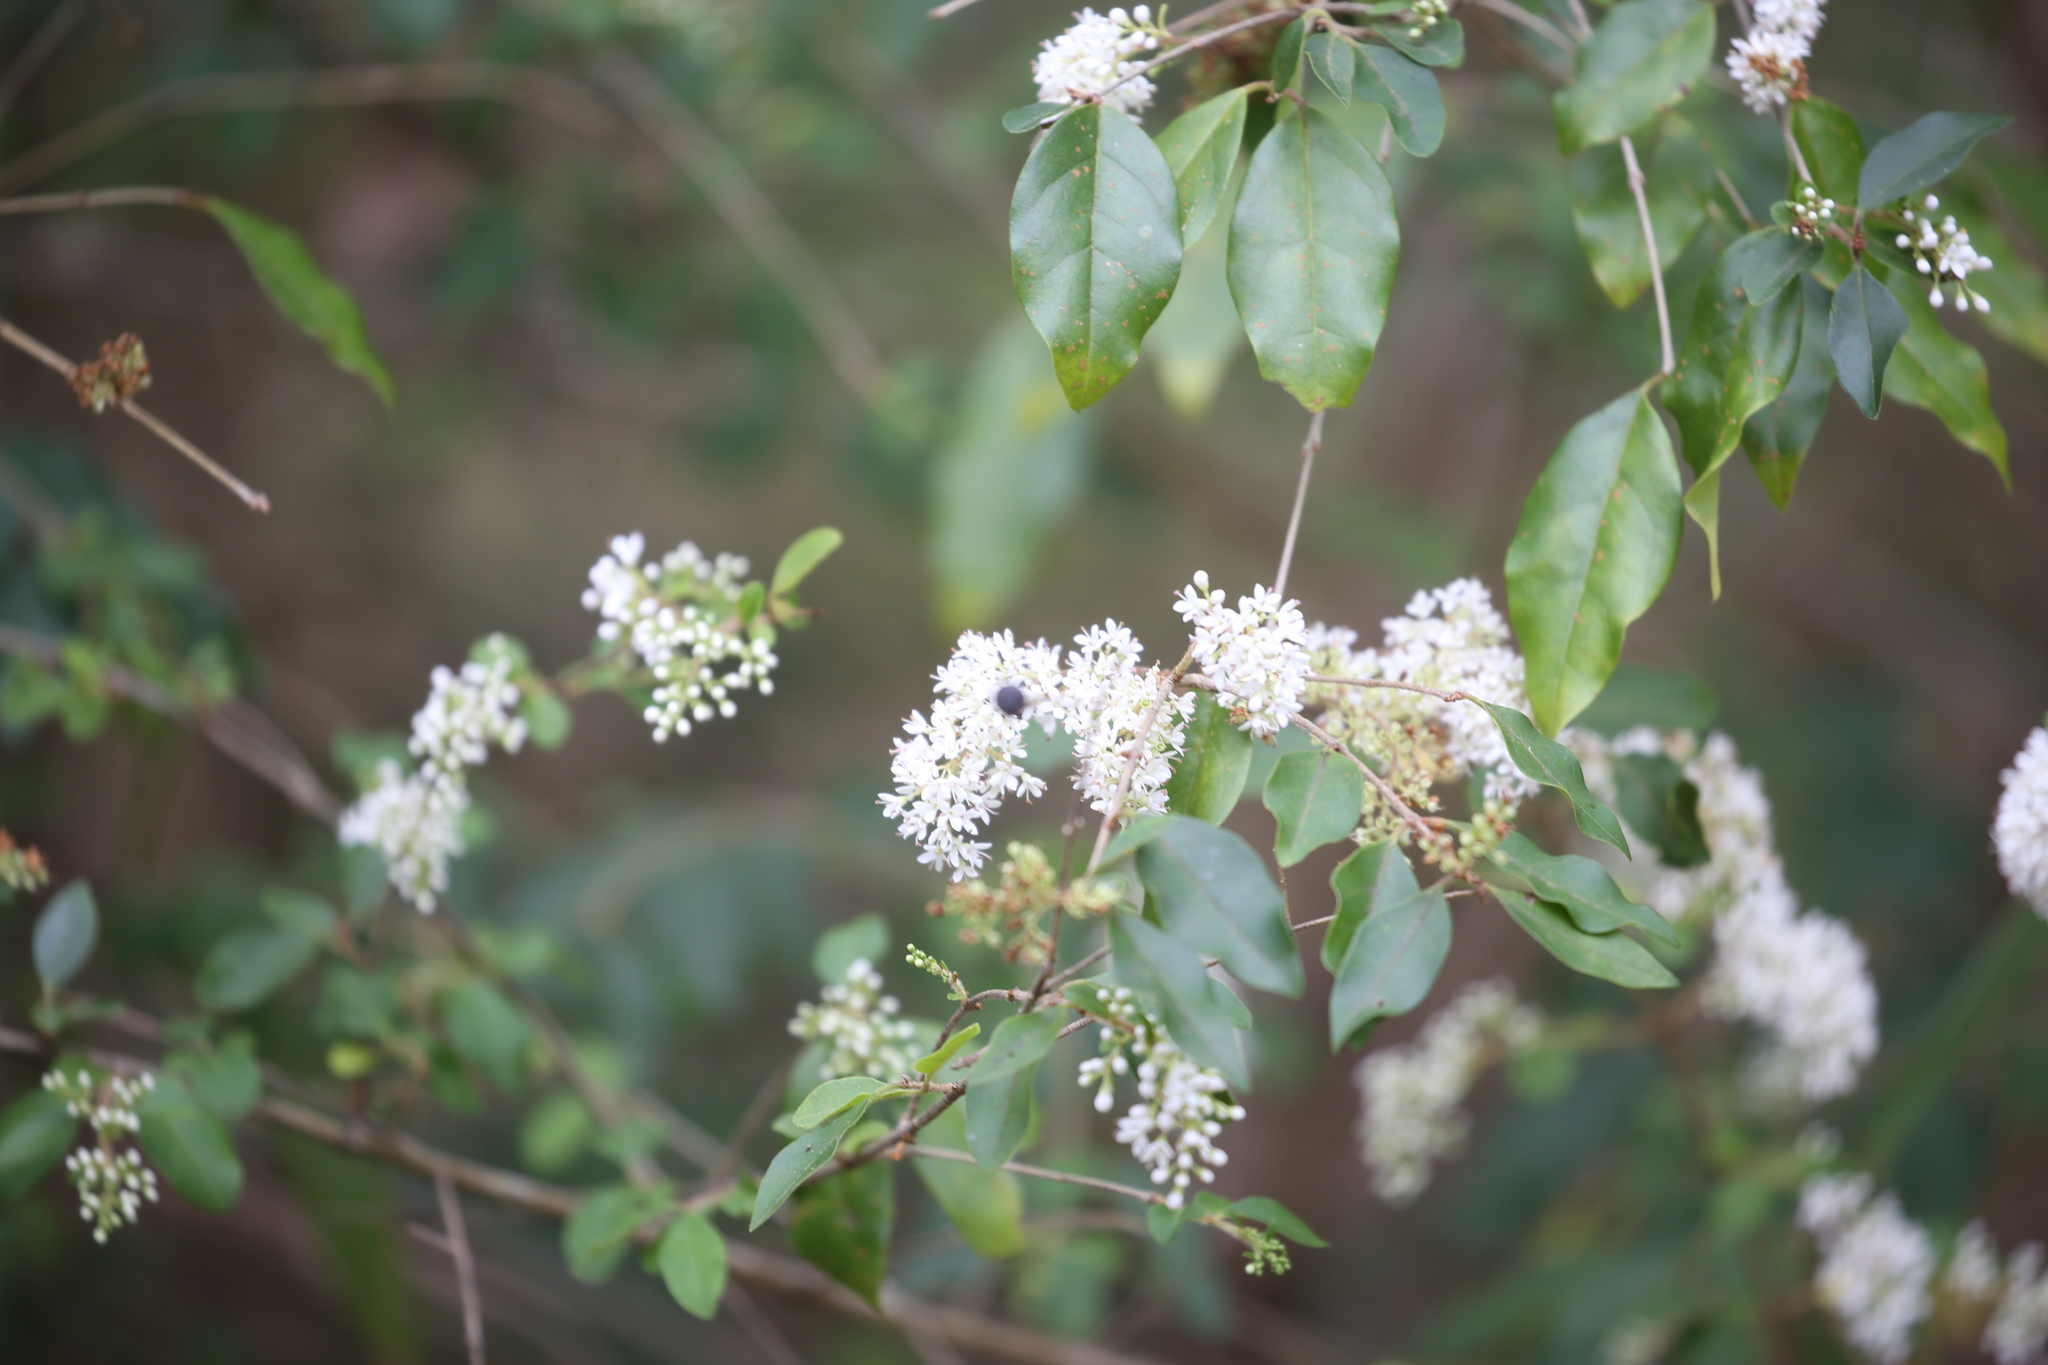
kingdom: Plantae
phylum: Tracheophyta
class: Magnoliopsida
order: Lamiales
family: Oleaceae
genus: Ligustrum
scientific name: Ligustrum sinense
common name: Chinese privet
